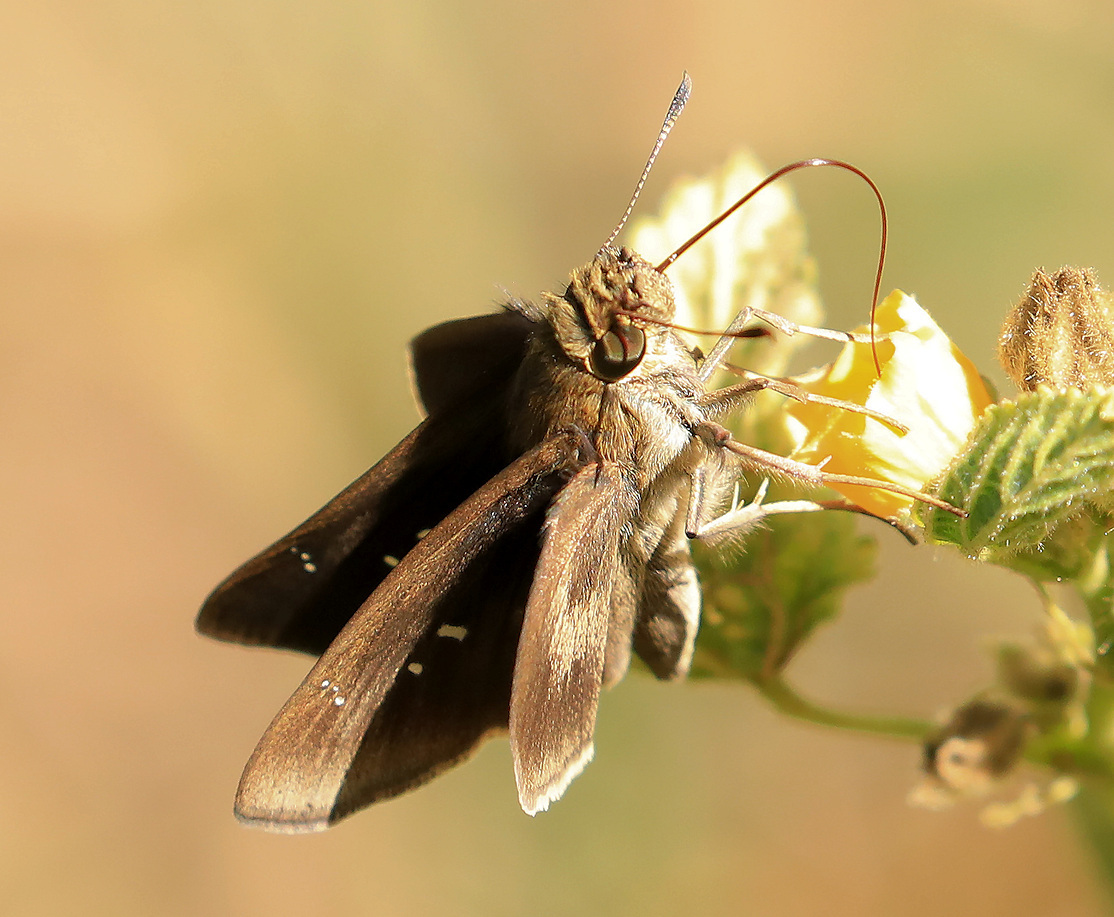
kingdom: Animalia
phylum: Arthropoda
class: Insecta
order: Lepidoptera
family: Hesperiidae
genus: Baoris
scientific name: Baoris fatuellus
